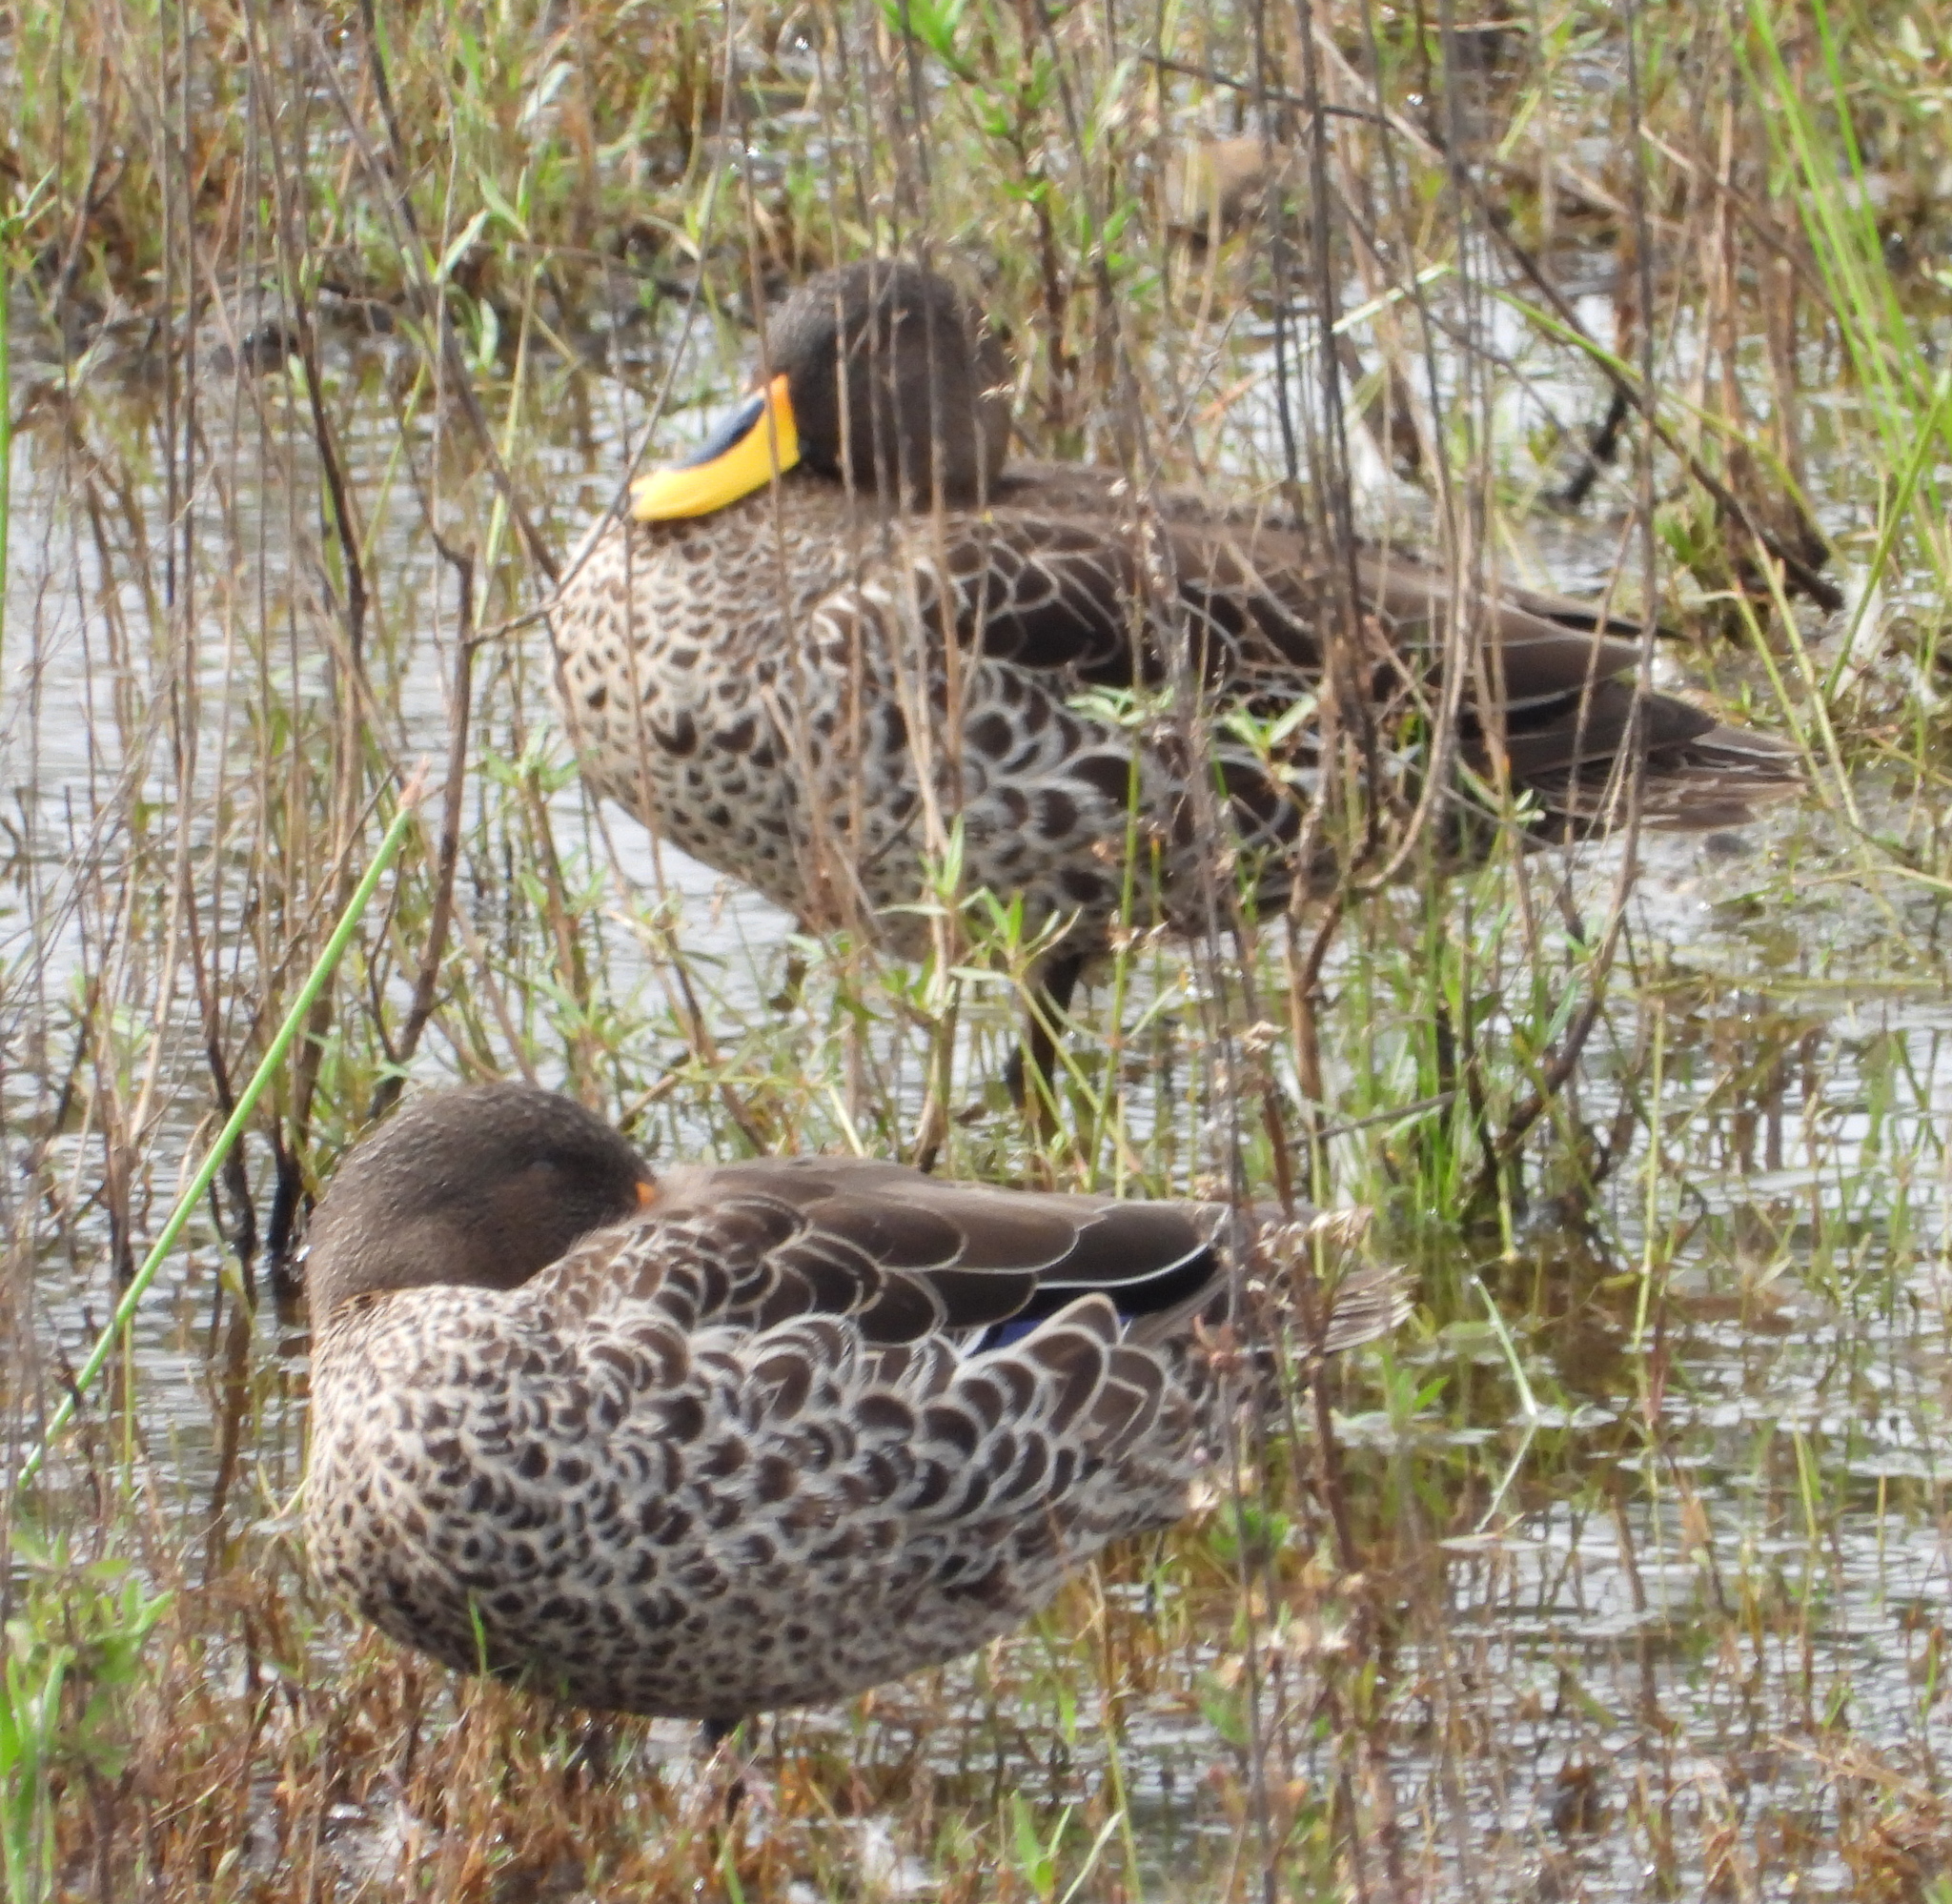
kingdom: Animalia
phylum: Chordata
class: Aves
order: Anseriformes
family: Anatidae
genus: Anas
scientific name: Anas undulata
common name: Yellow-billed duck
